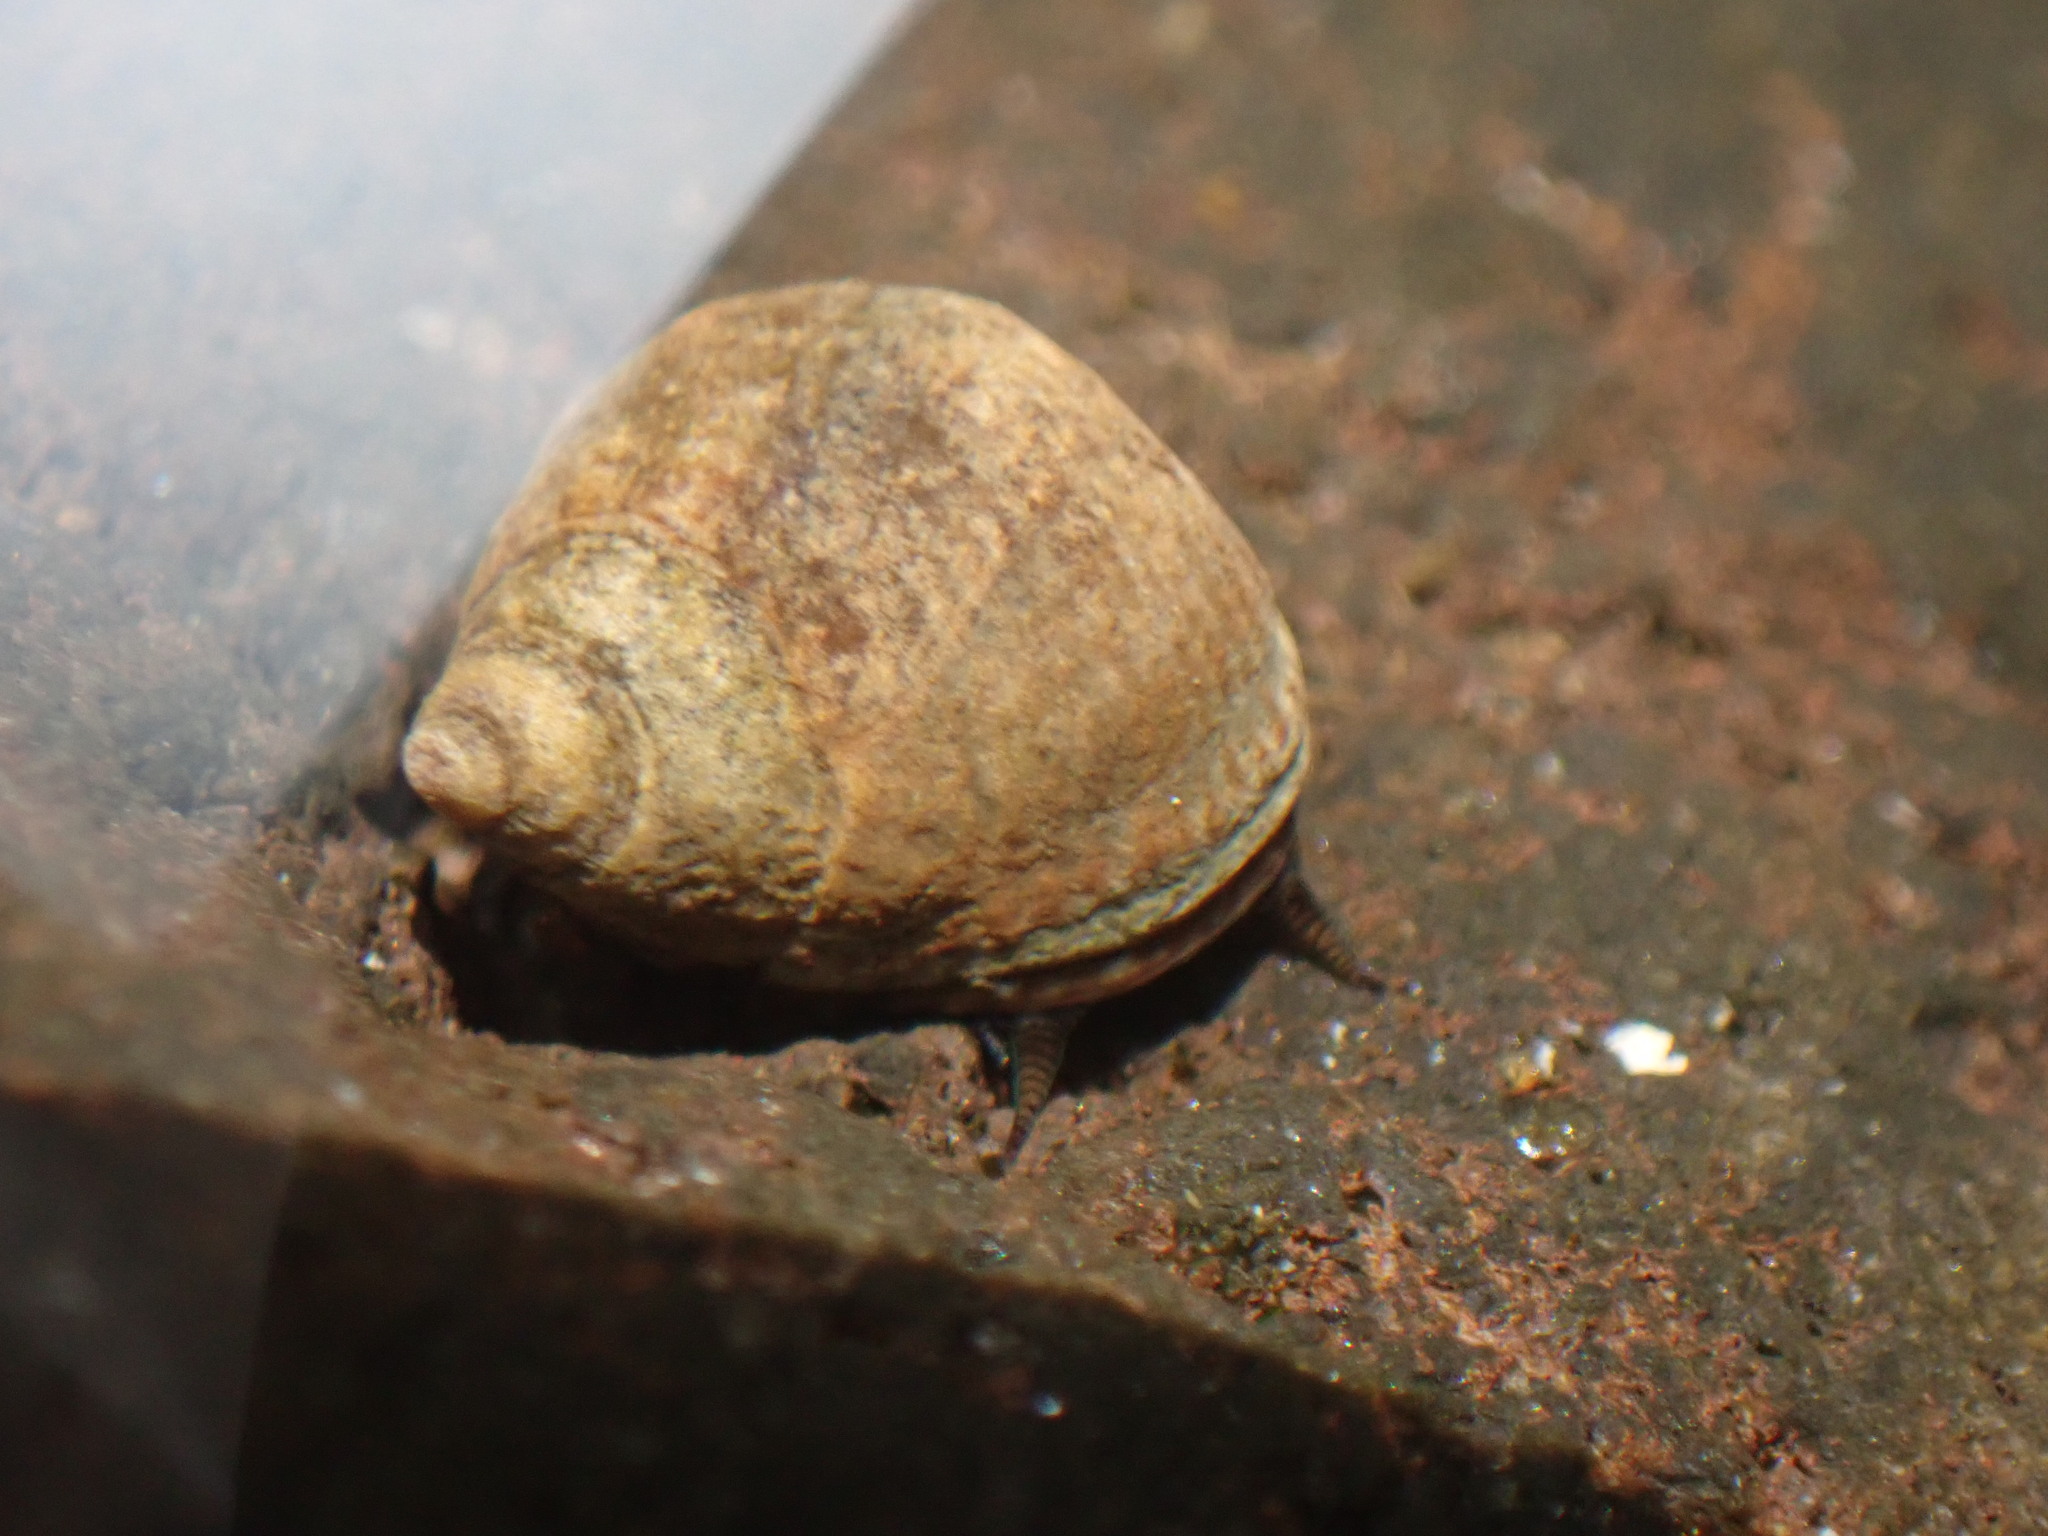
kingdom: Animalia
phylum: Mollusca
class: Gastropoda
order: Littorinimorpha
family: Littorinidae
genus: Tectarius
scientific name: Tectarius striatus
